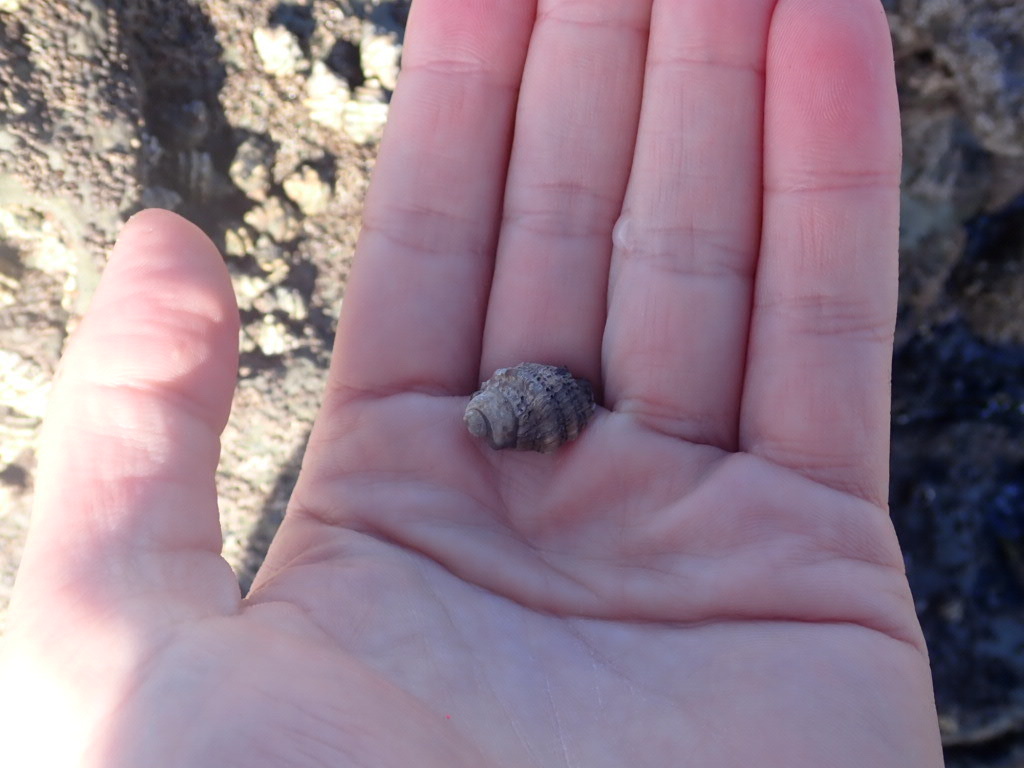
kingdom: Animalia
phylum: Mollusca
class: Gastropoda
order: Neogastropoda
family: Muricidae
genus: Haustrum
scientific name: Haustrum scobina
